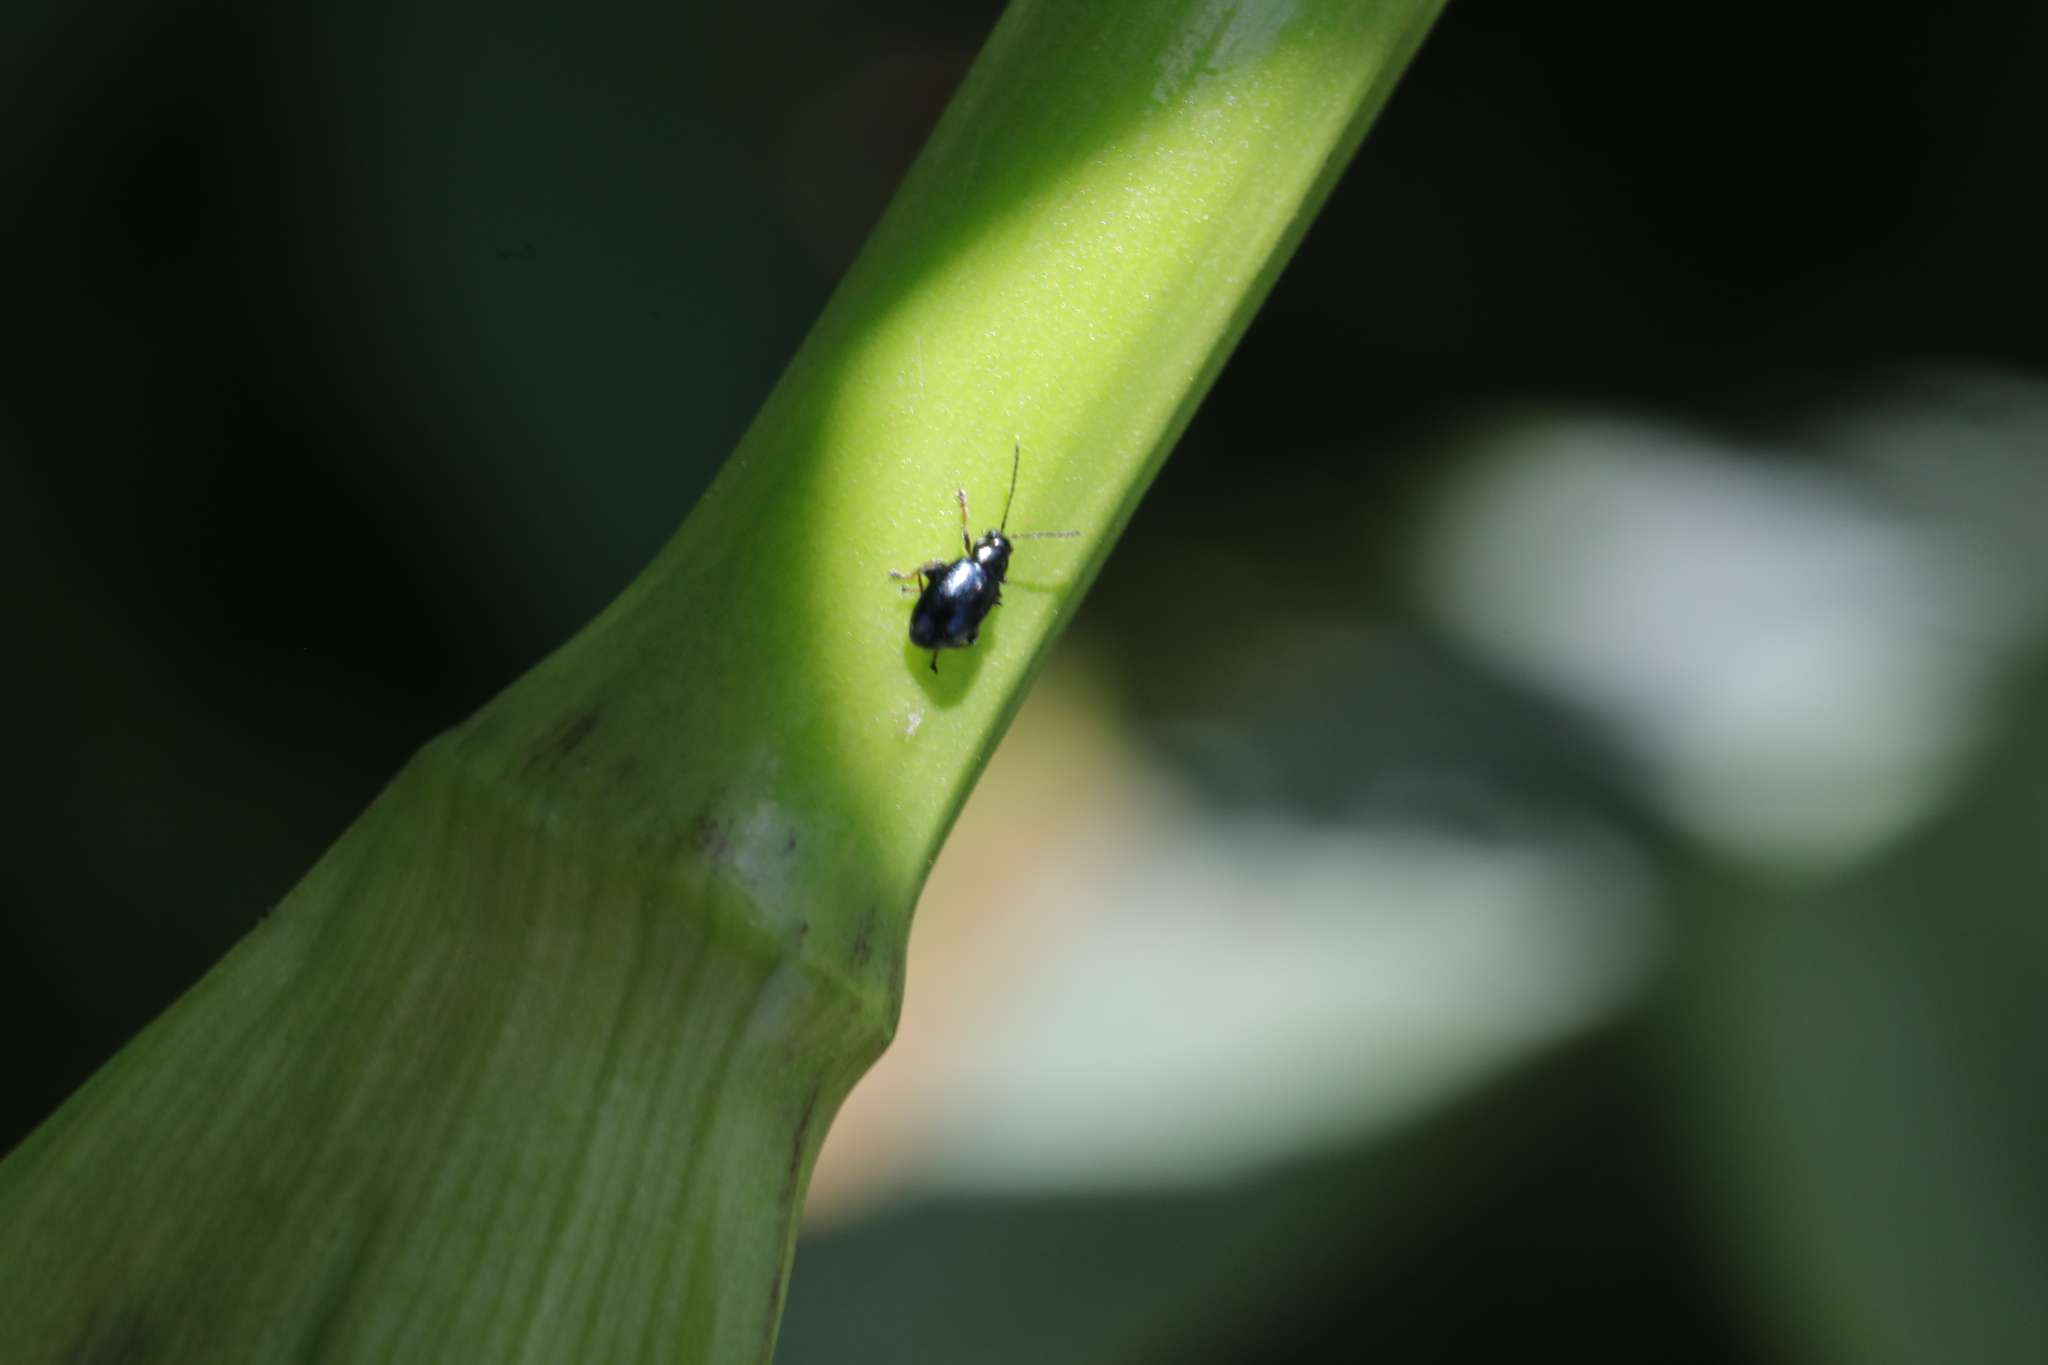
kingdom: Animalia
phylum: Arthropoda
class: Insecta
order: Coleoptera
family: Chrysomelidae
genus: Aphthona
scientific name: Aphthona nonstriata
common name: Iris flea beetle
